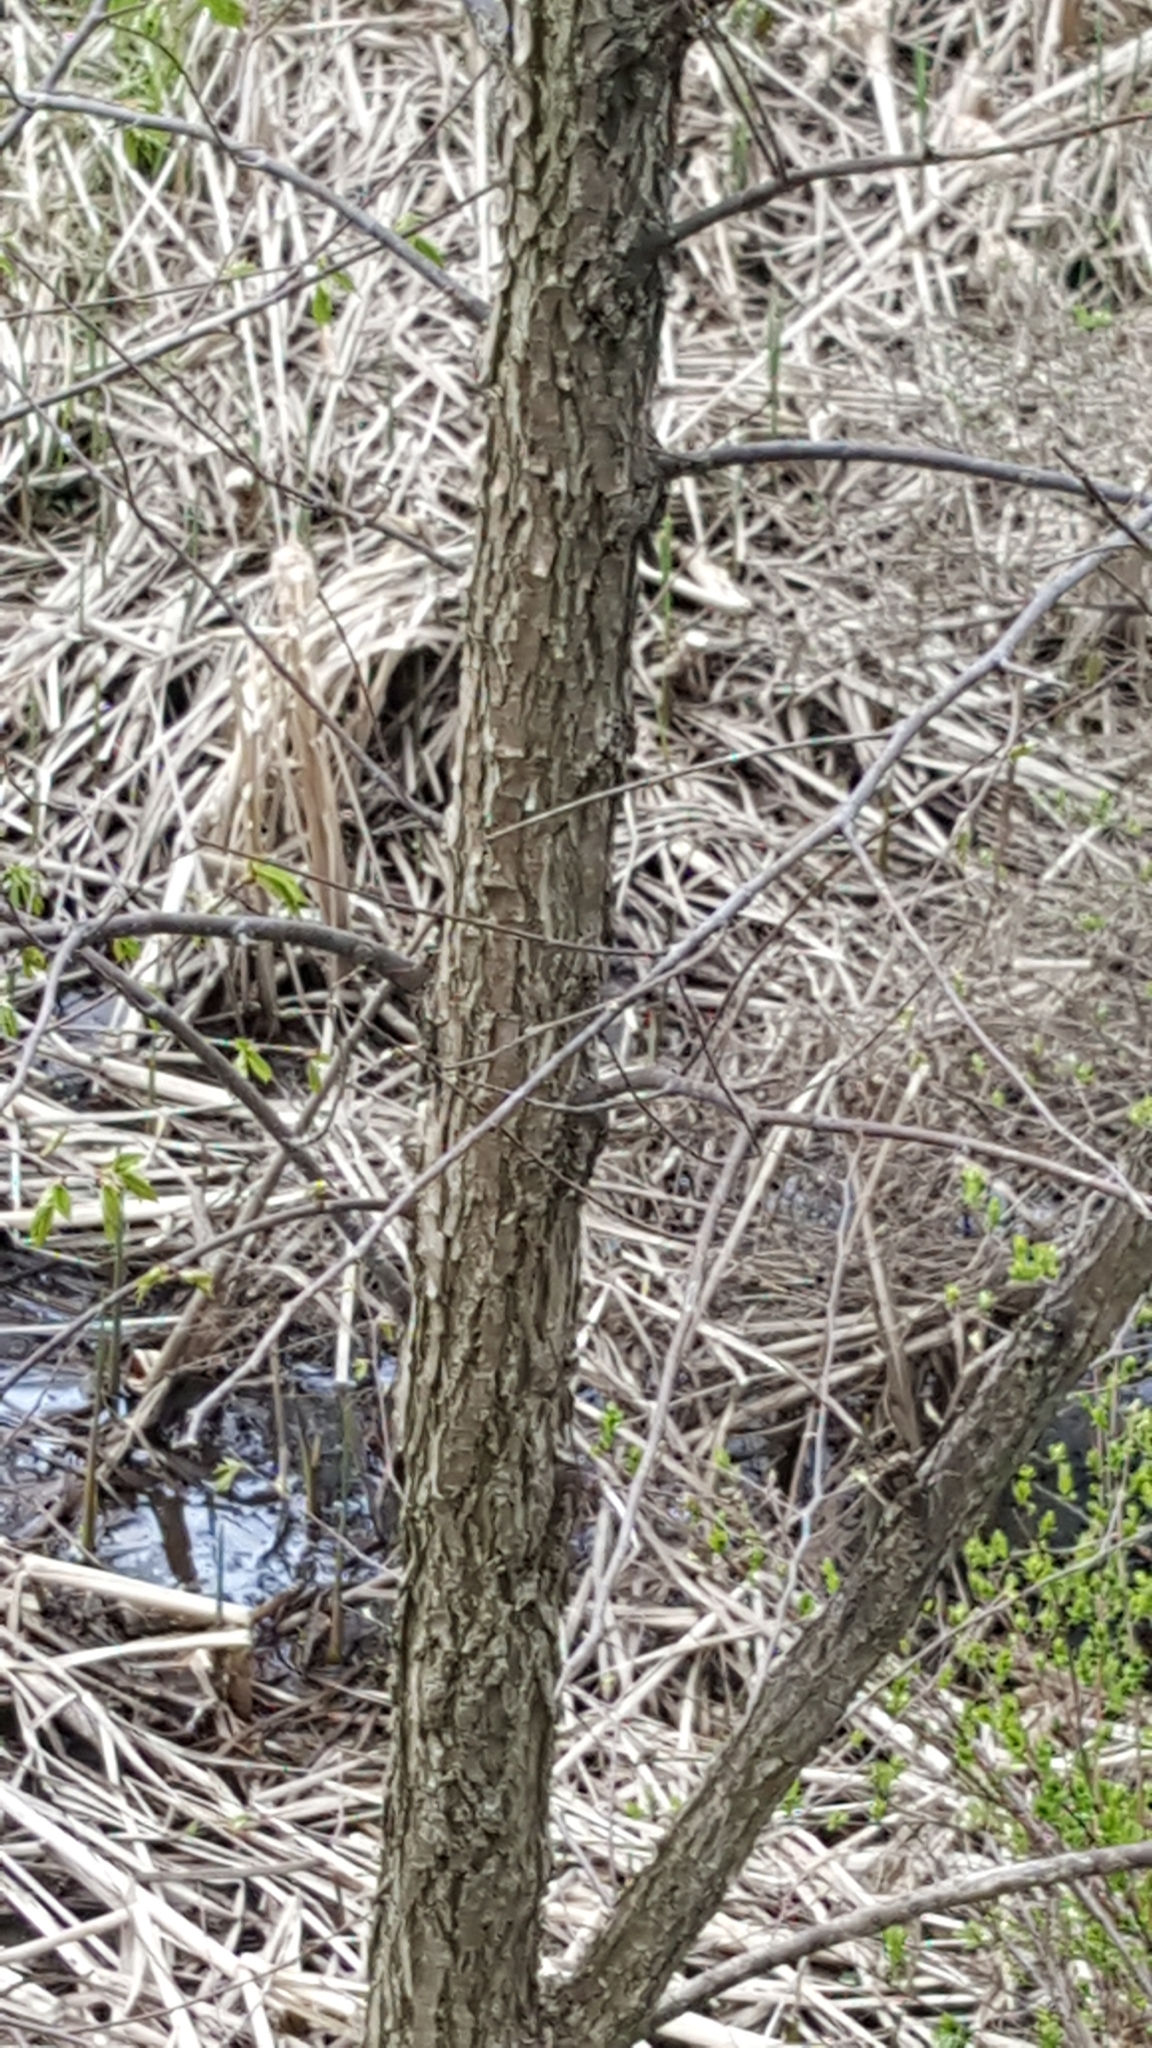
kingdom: Plantae
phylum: Tracheophyta
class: Magnoliopsida
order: Rosales
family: Ulmaceae
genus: Ulmus
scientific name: Ulmus americana
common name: American elm
